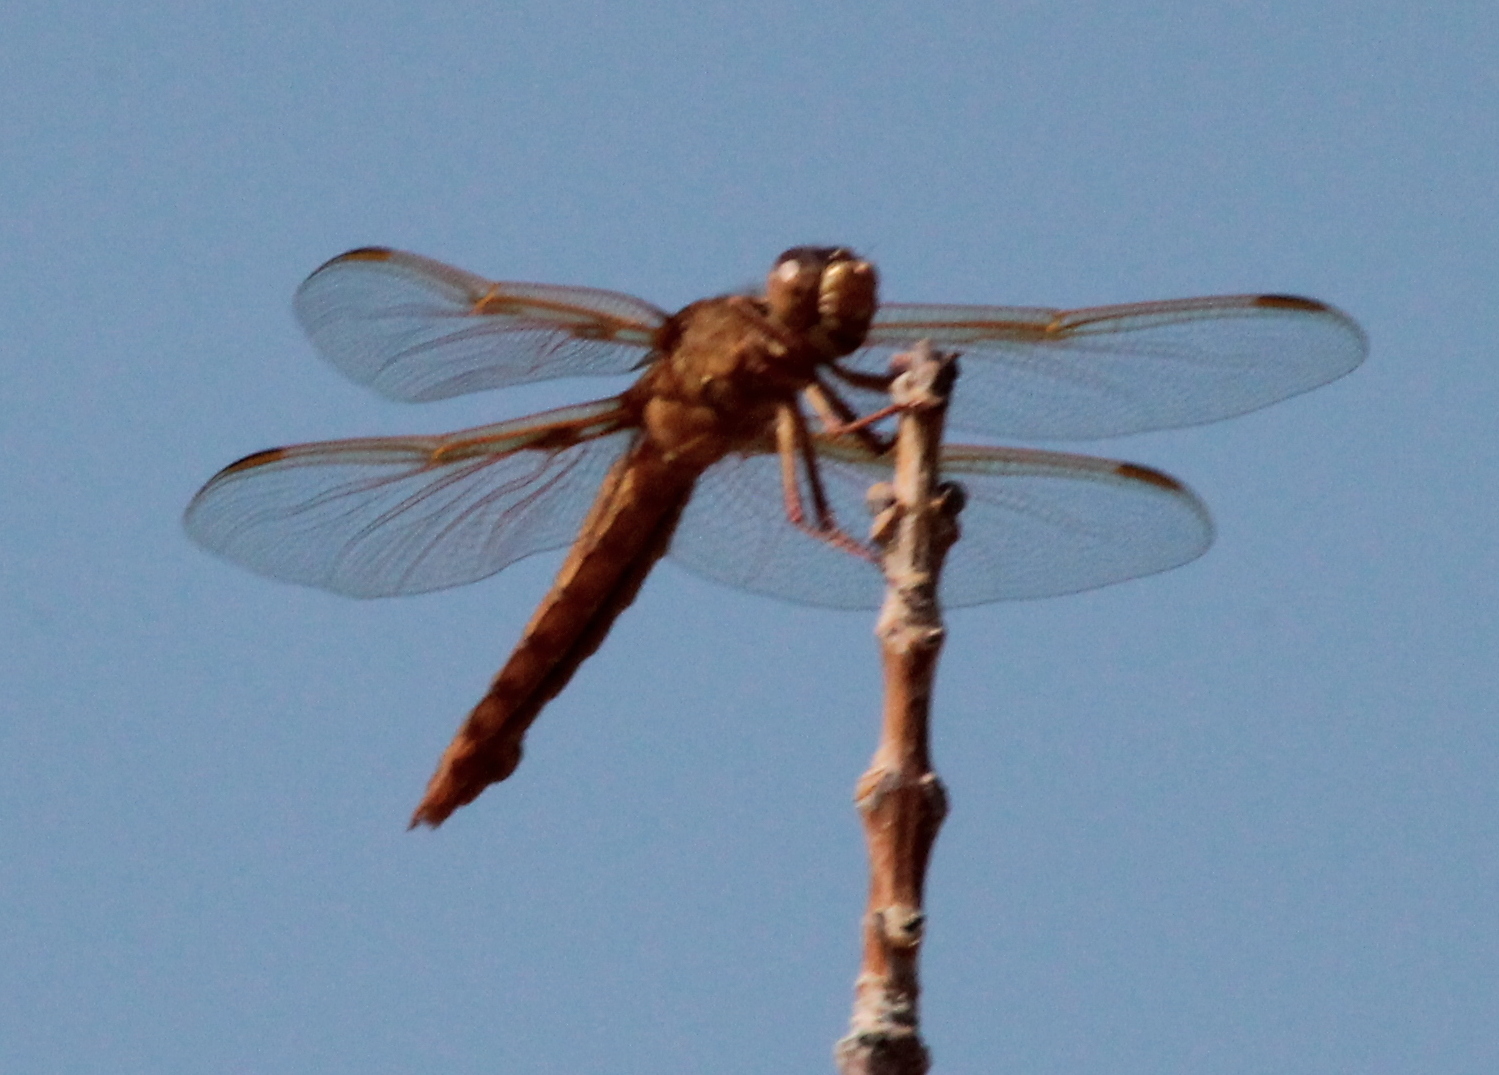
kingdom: Animalia
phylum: Arthropoda
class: Insecta
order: Odonata
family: Libellulidae
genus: Libellula
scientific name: Libellula saturata
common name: Flame skimmer
